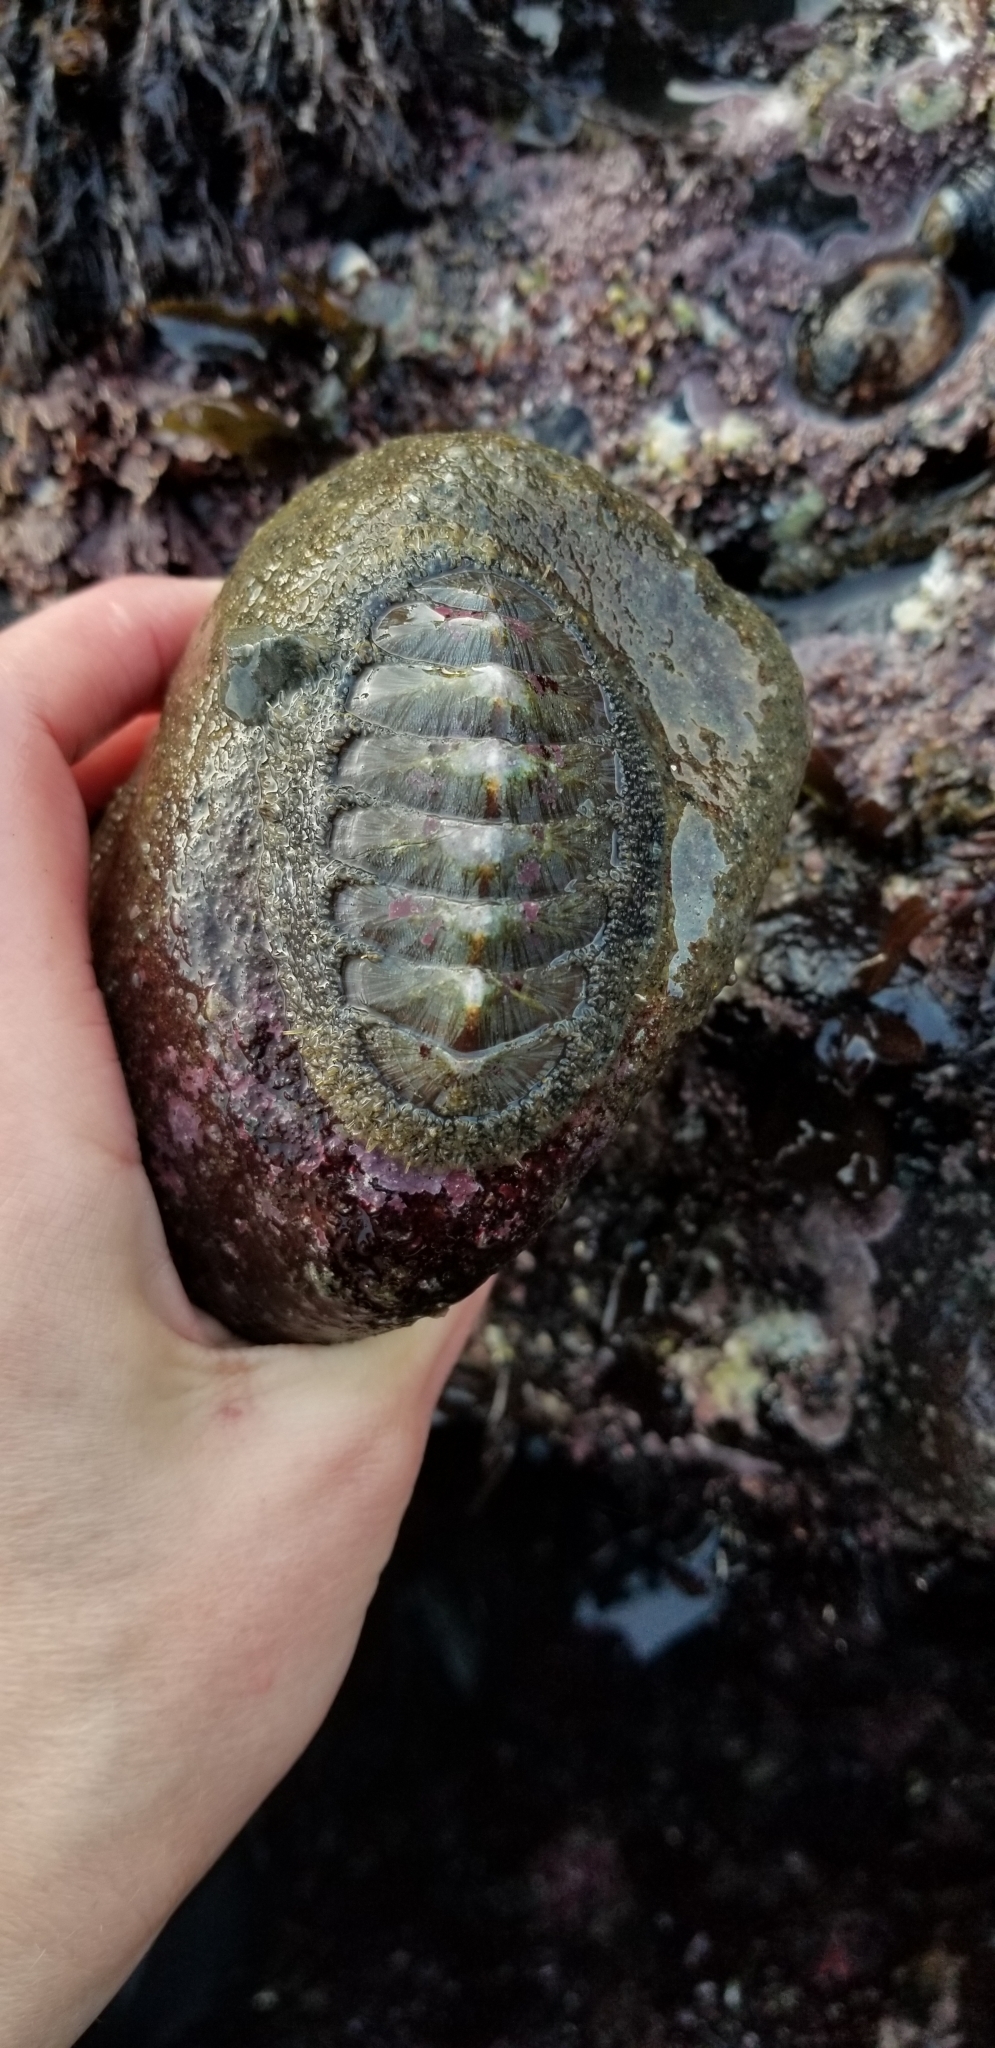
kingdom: Animalia
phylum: Mollusca
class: Polyplacophora
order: Chitonida
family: Mopaliidae
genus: Mopalia
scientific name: Mopalia lignosa
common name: Woody chiton
